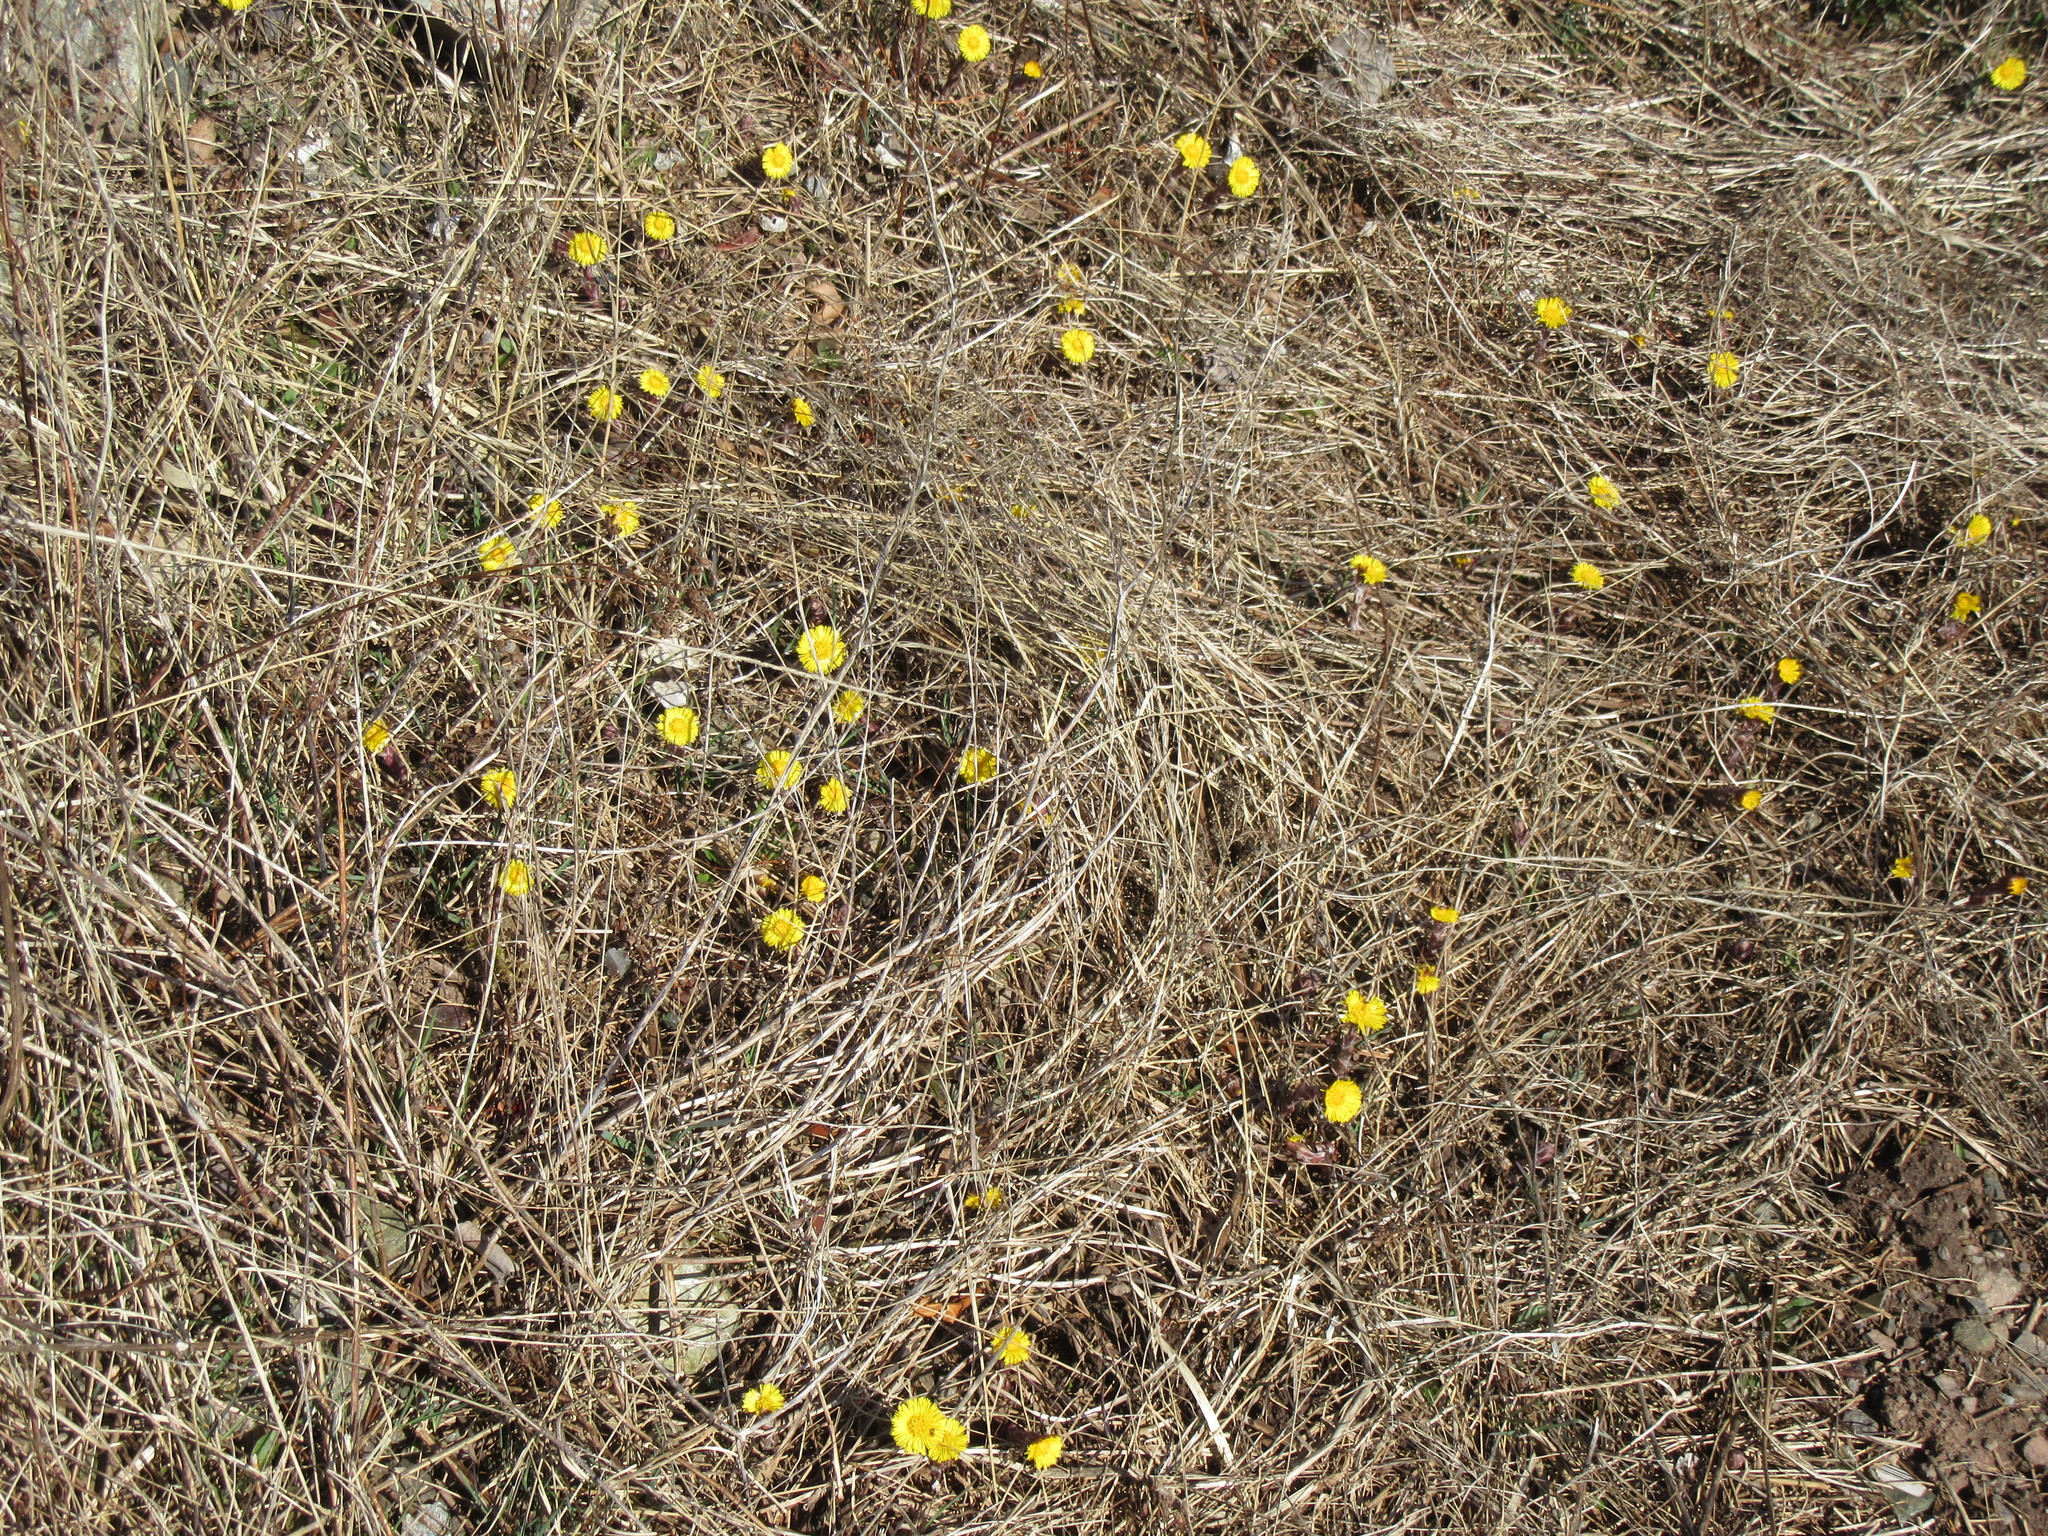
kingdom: Plantae
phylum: Tracheophyta
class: Magnoliopsida
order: Asterales
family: Asteraceae
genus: Tussilago
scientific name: Tussilago farfara
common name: Coltsfoot
